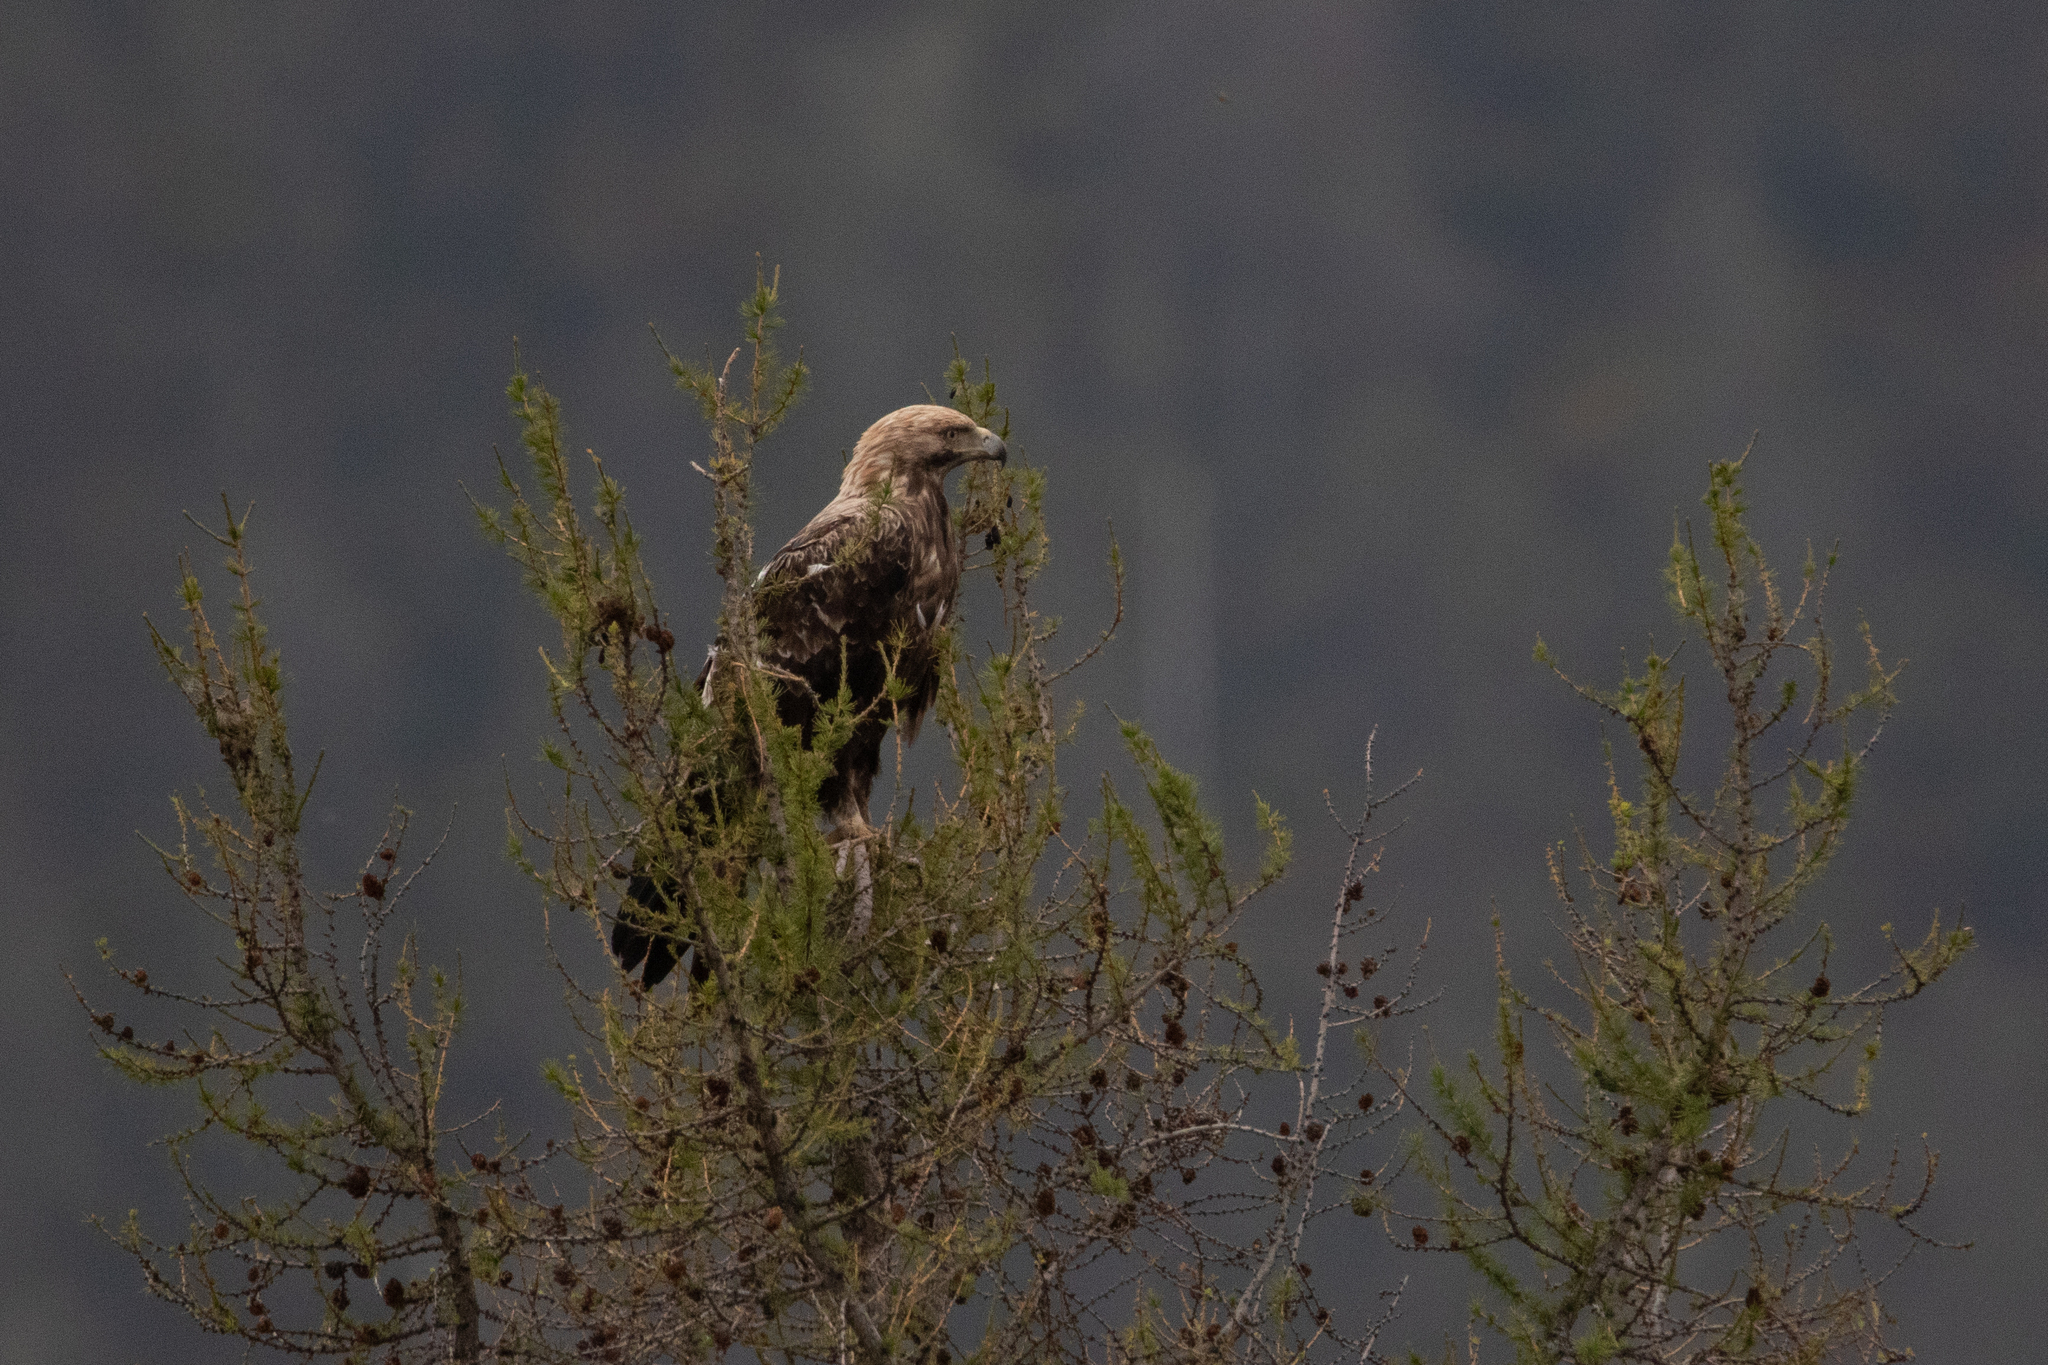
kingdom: Animalia
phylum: Chordata
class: Aves
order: Accipitriformes
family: Accipitridae
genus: Aquila
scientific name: Aquila heliaca
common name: Eastern imperial eagle
